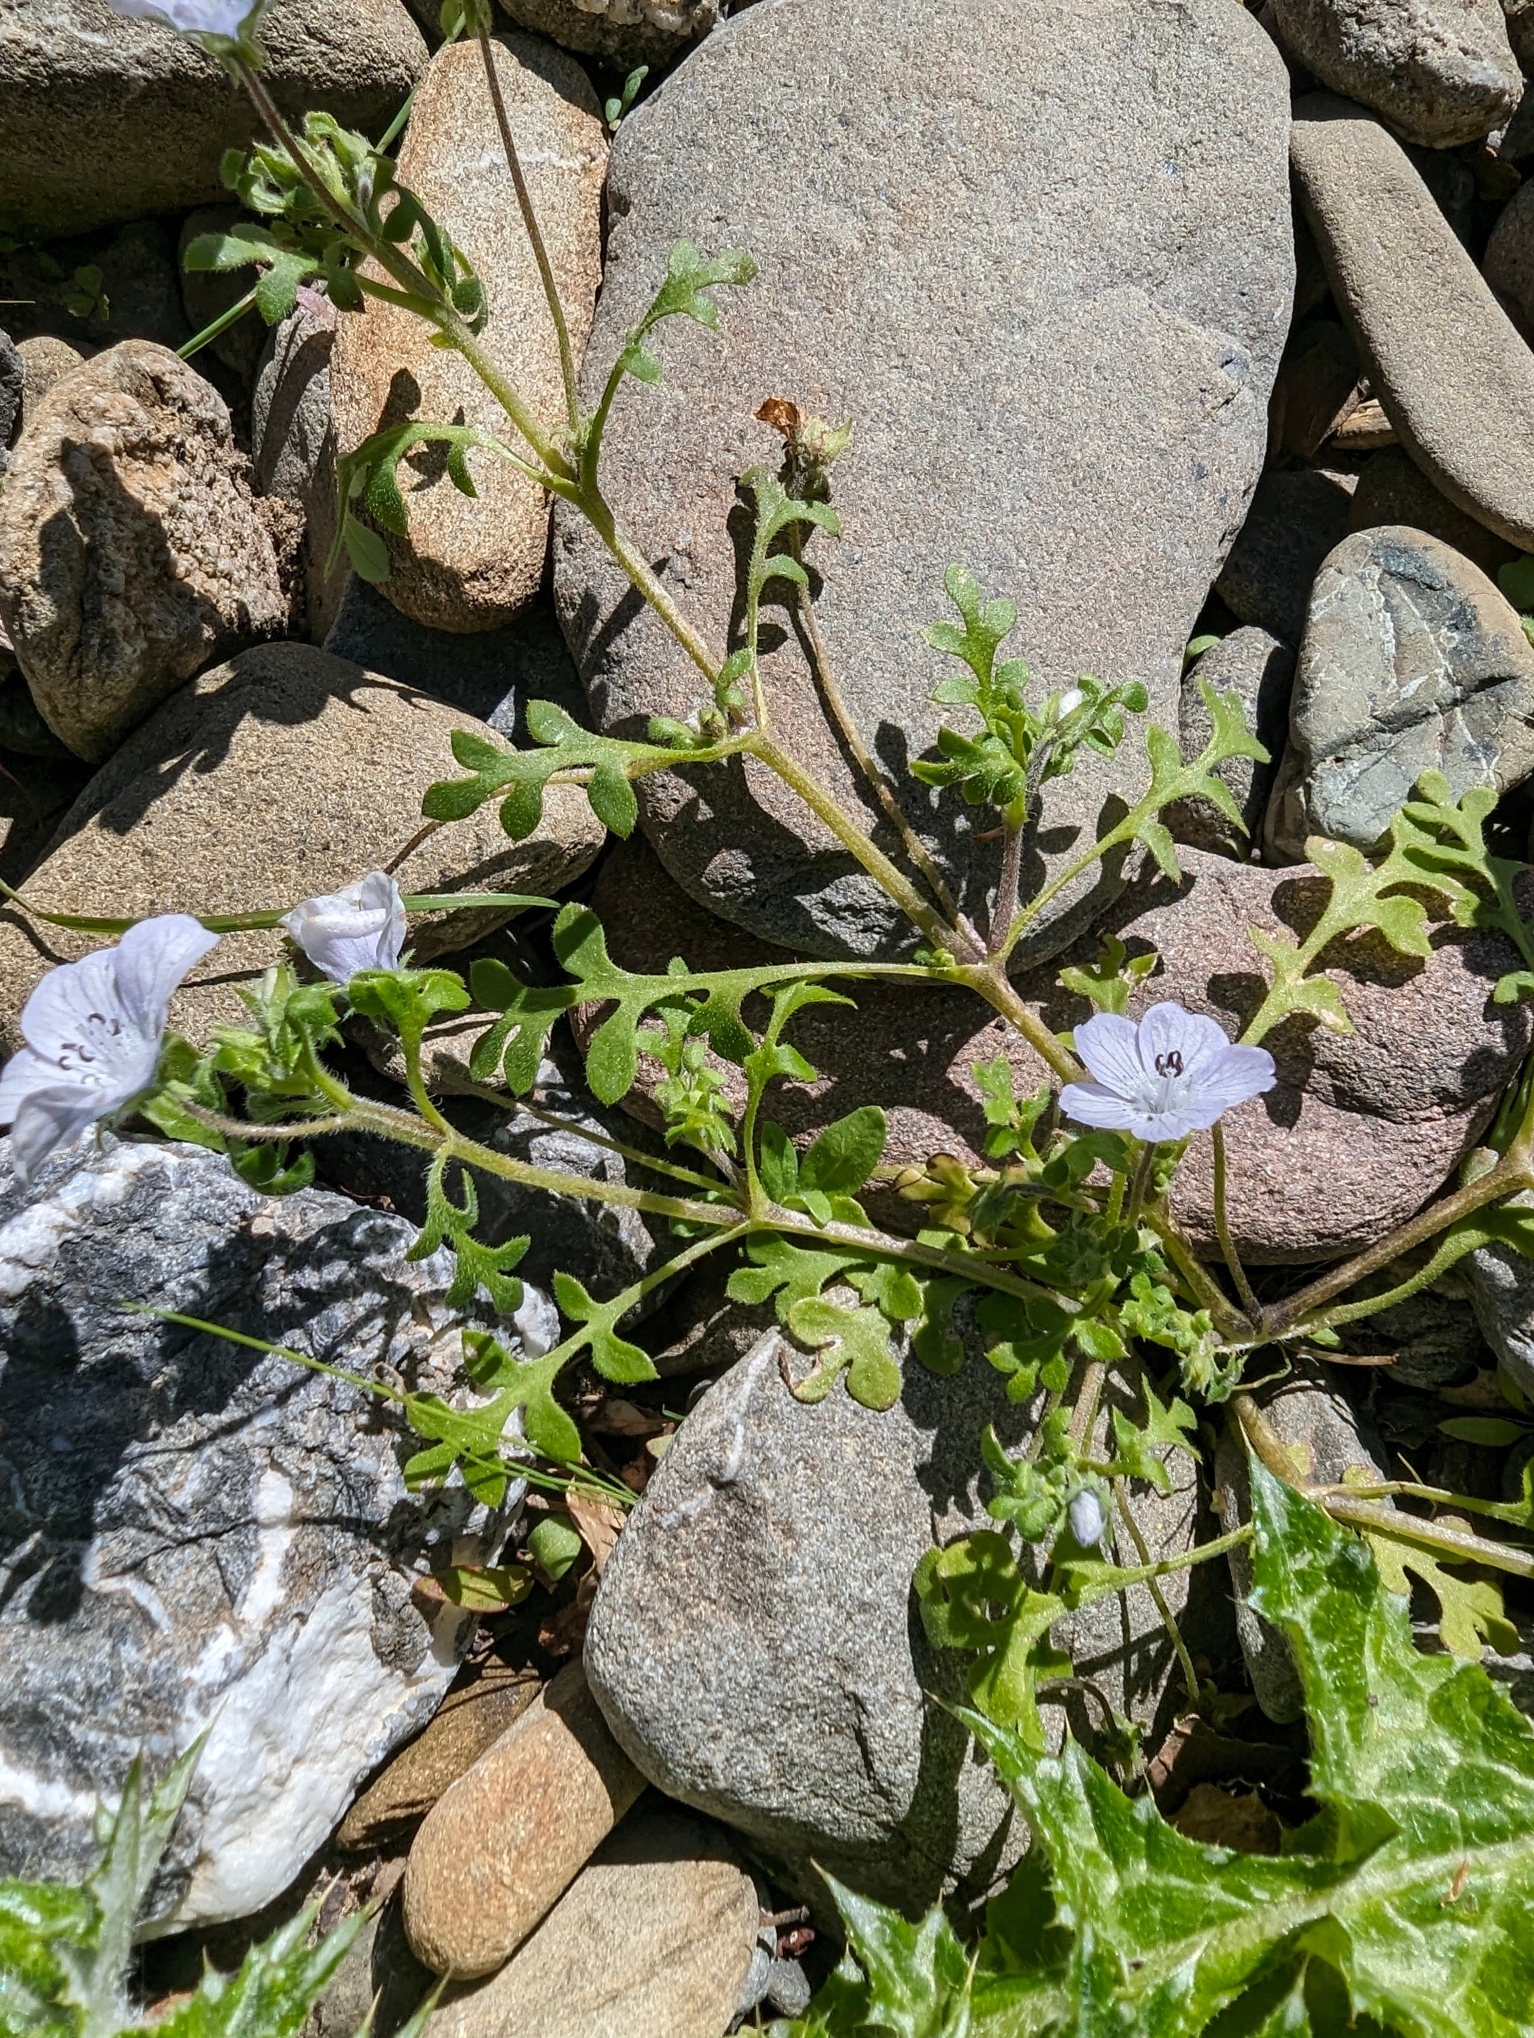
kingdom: Plantae
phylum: Tracheophyta
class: Magnoliopsida
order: Boraginales
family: Hydrophyllaceae
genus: Nemophila
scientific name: Nemophila menziesii
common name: Baby's-blue-eyes
